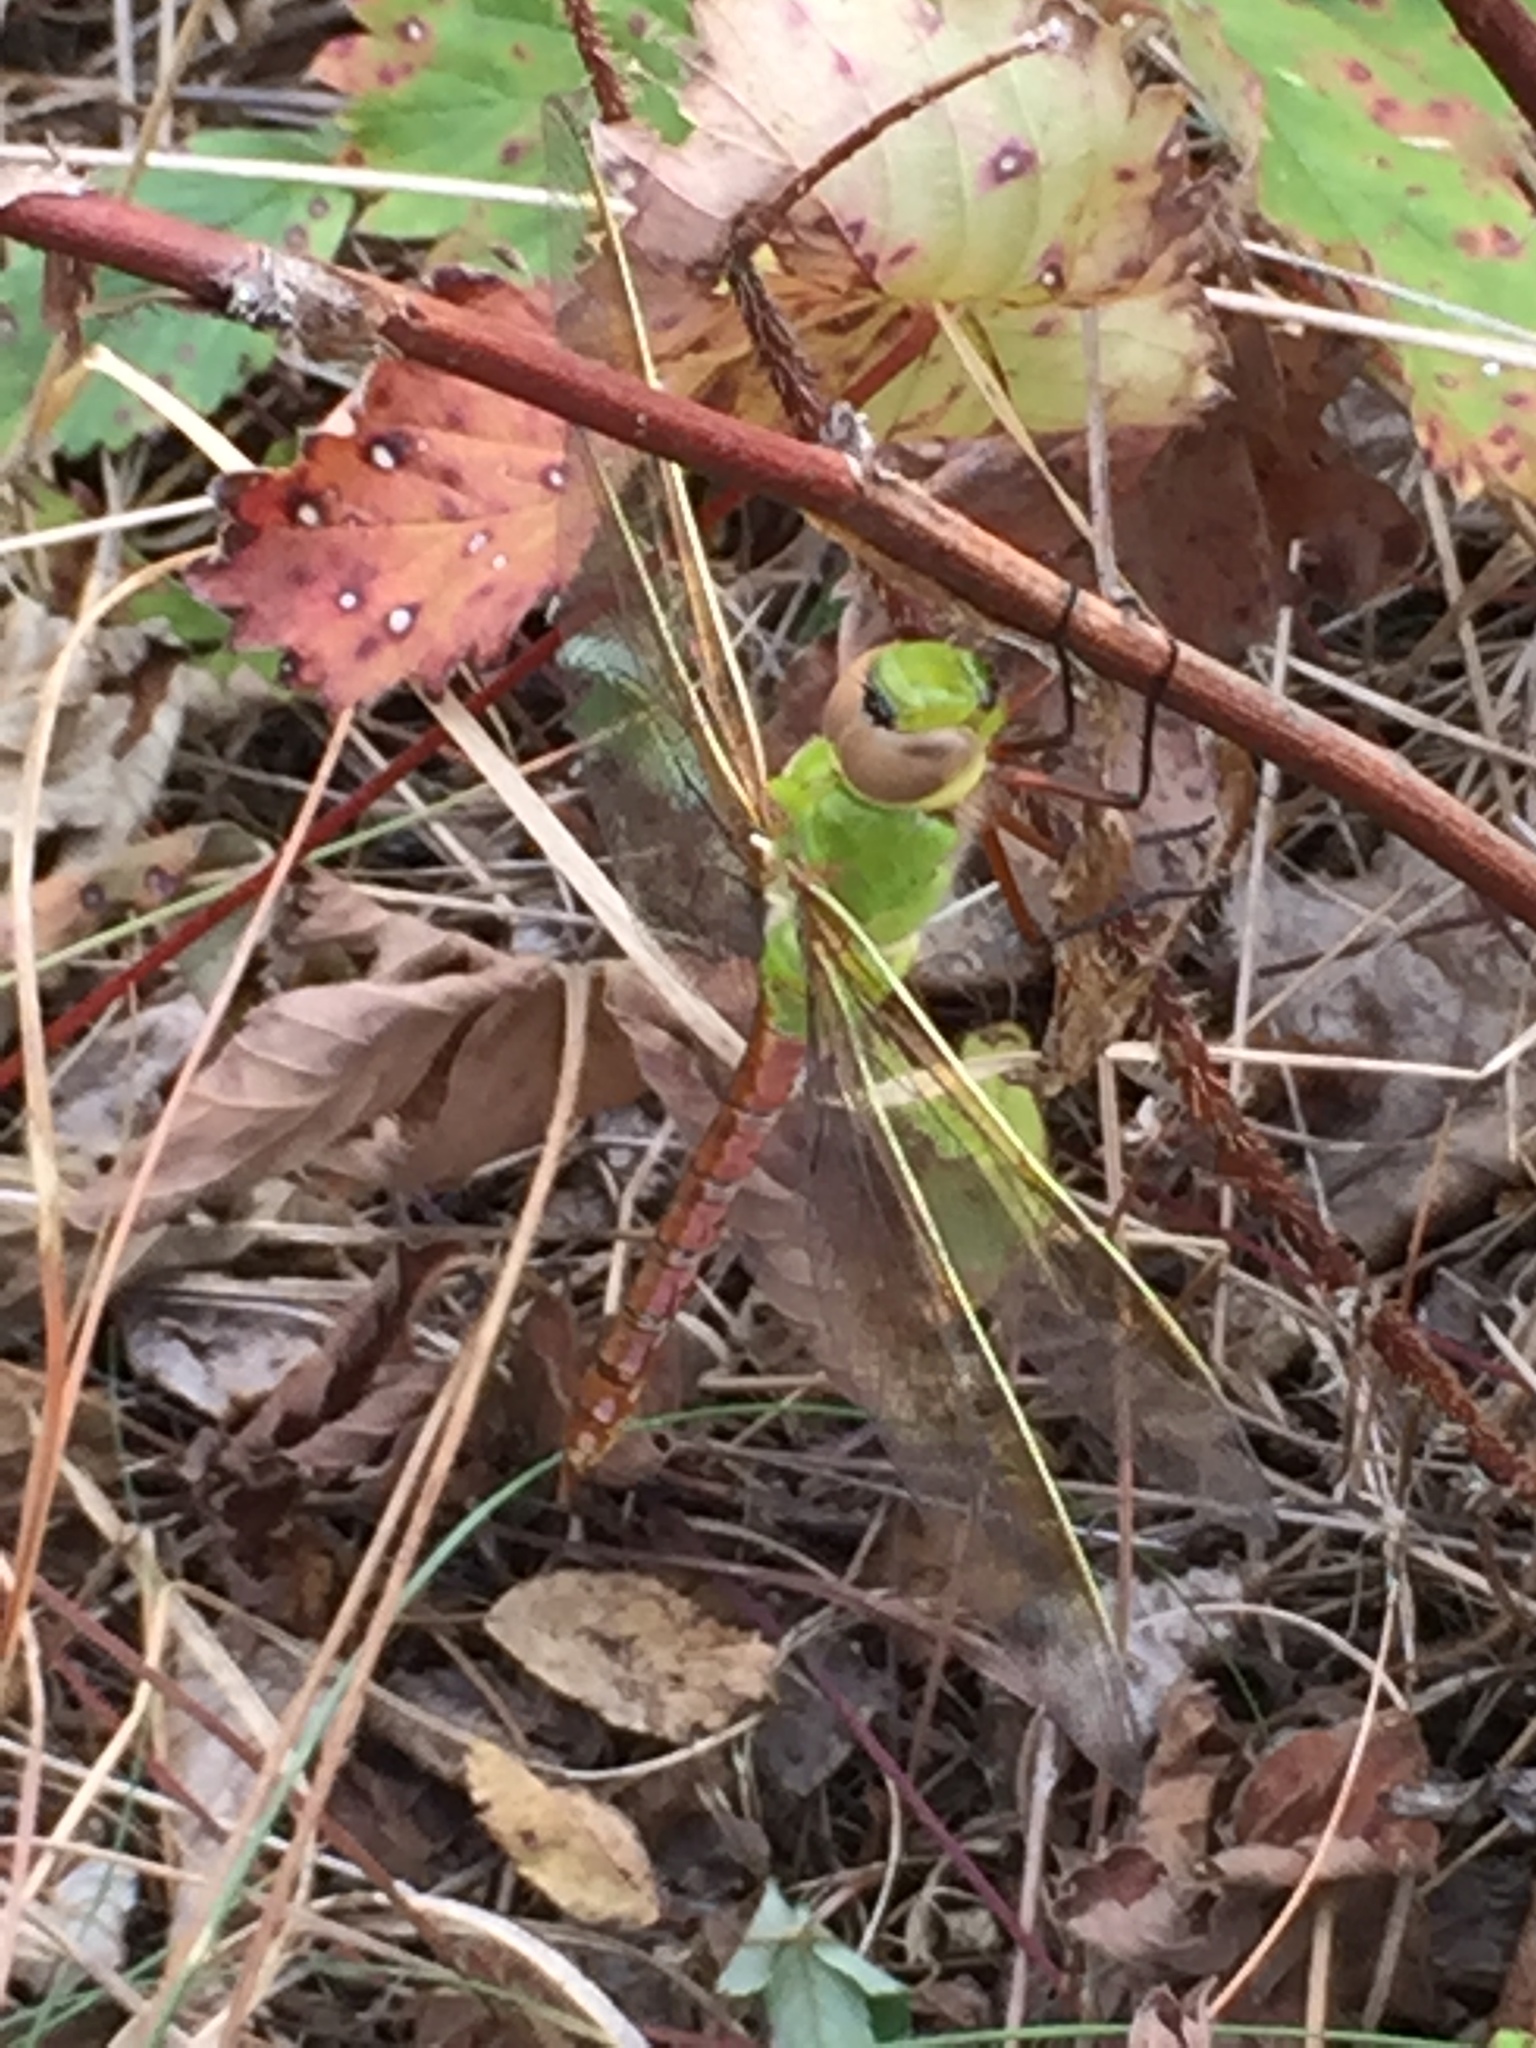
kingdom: Animalia
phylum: Arthropoda
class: Insecta
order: Odonata
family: Aeshnidae
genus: Anax
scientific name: Anax junius
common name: Common green darner
